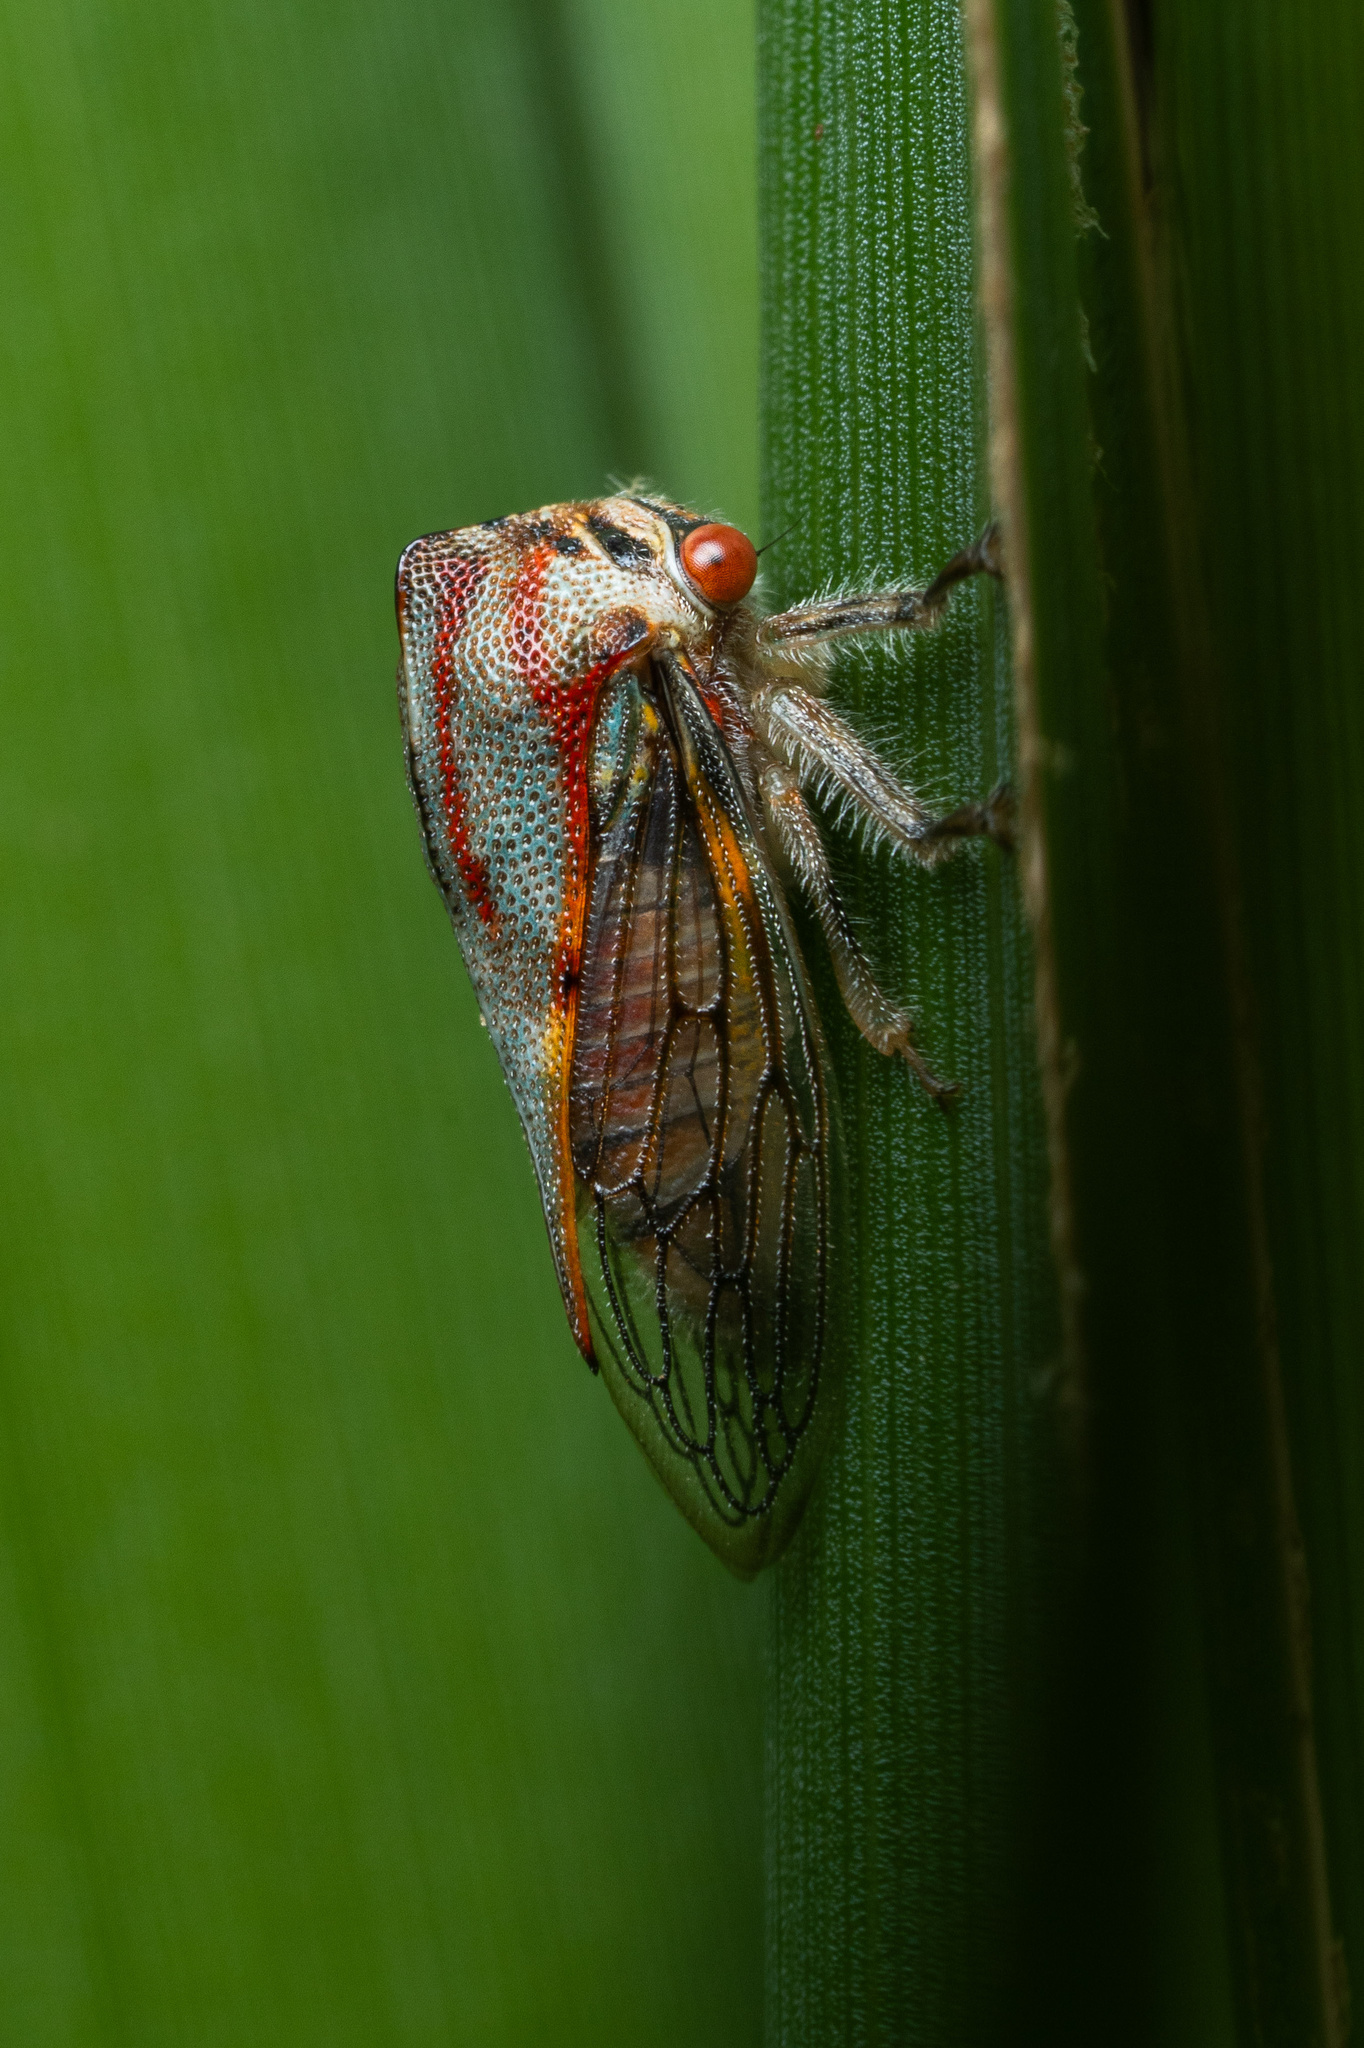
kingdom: Animalia
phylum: Arthropoda
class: Insecta
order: Hemiptera
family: Membracidae
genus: Platycotis
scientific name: Platycotis vittatus
